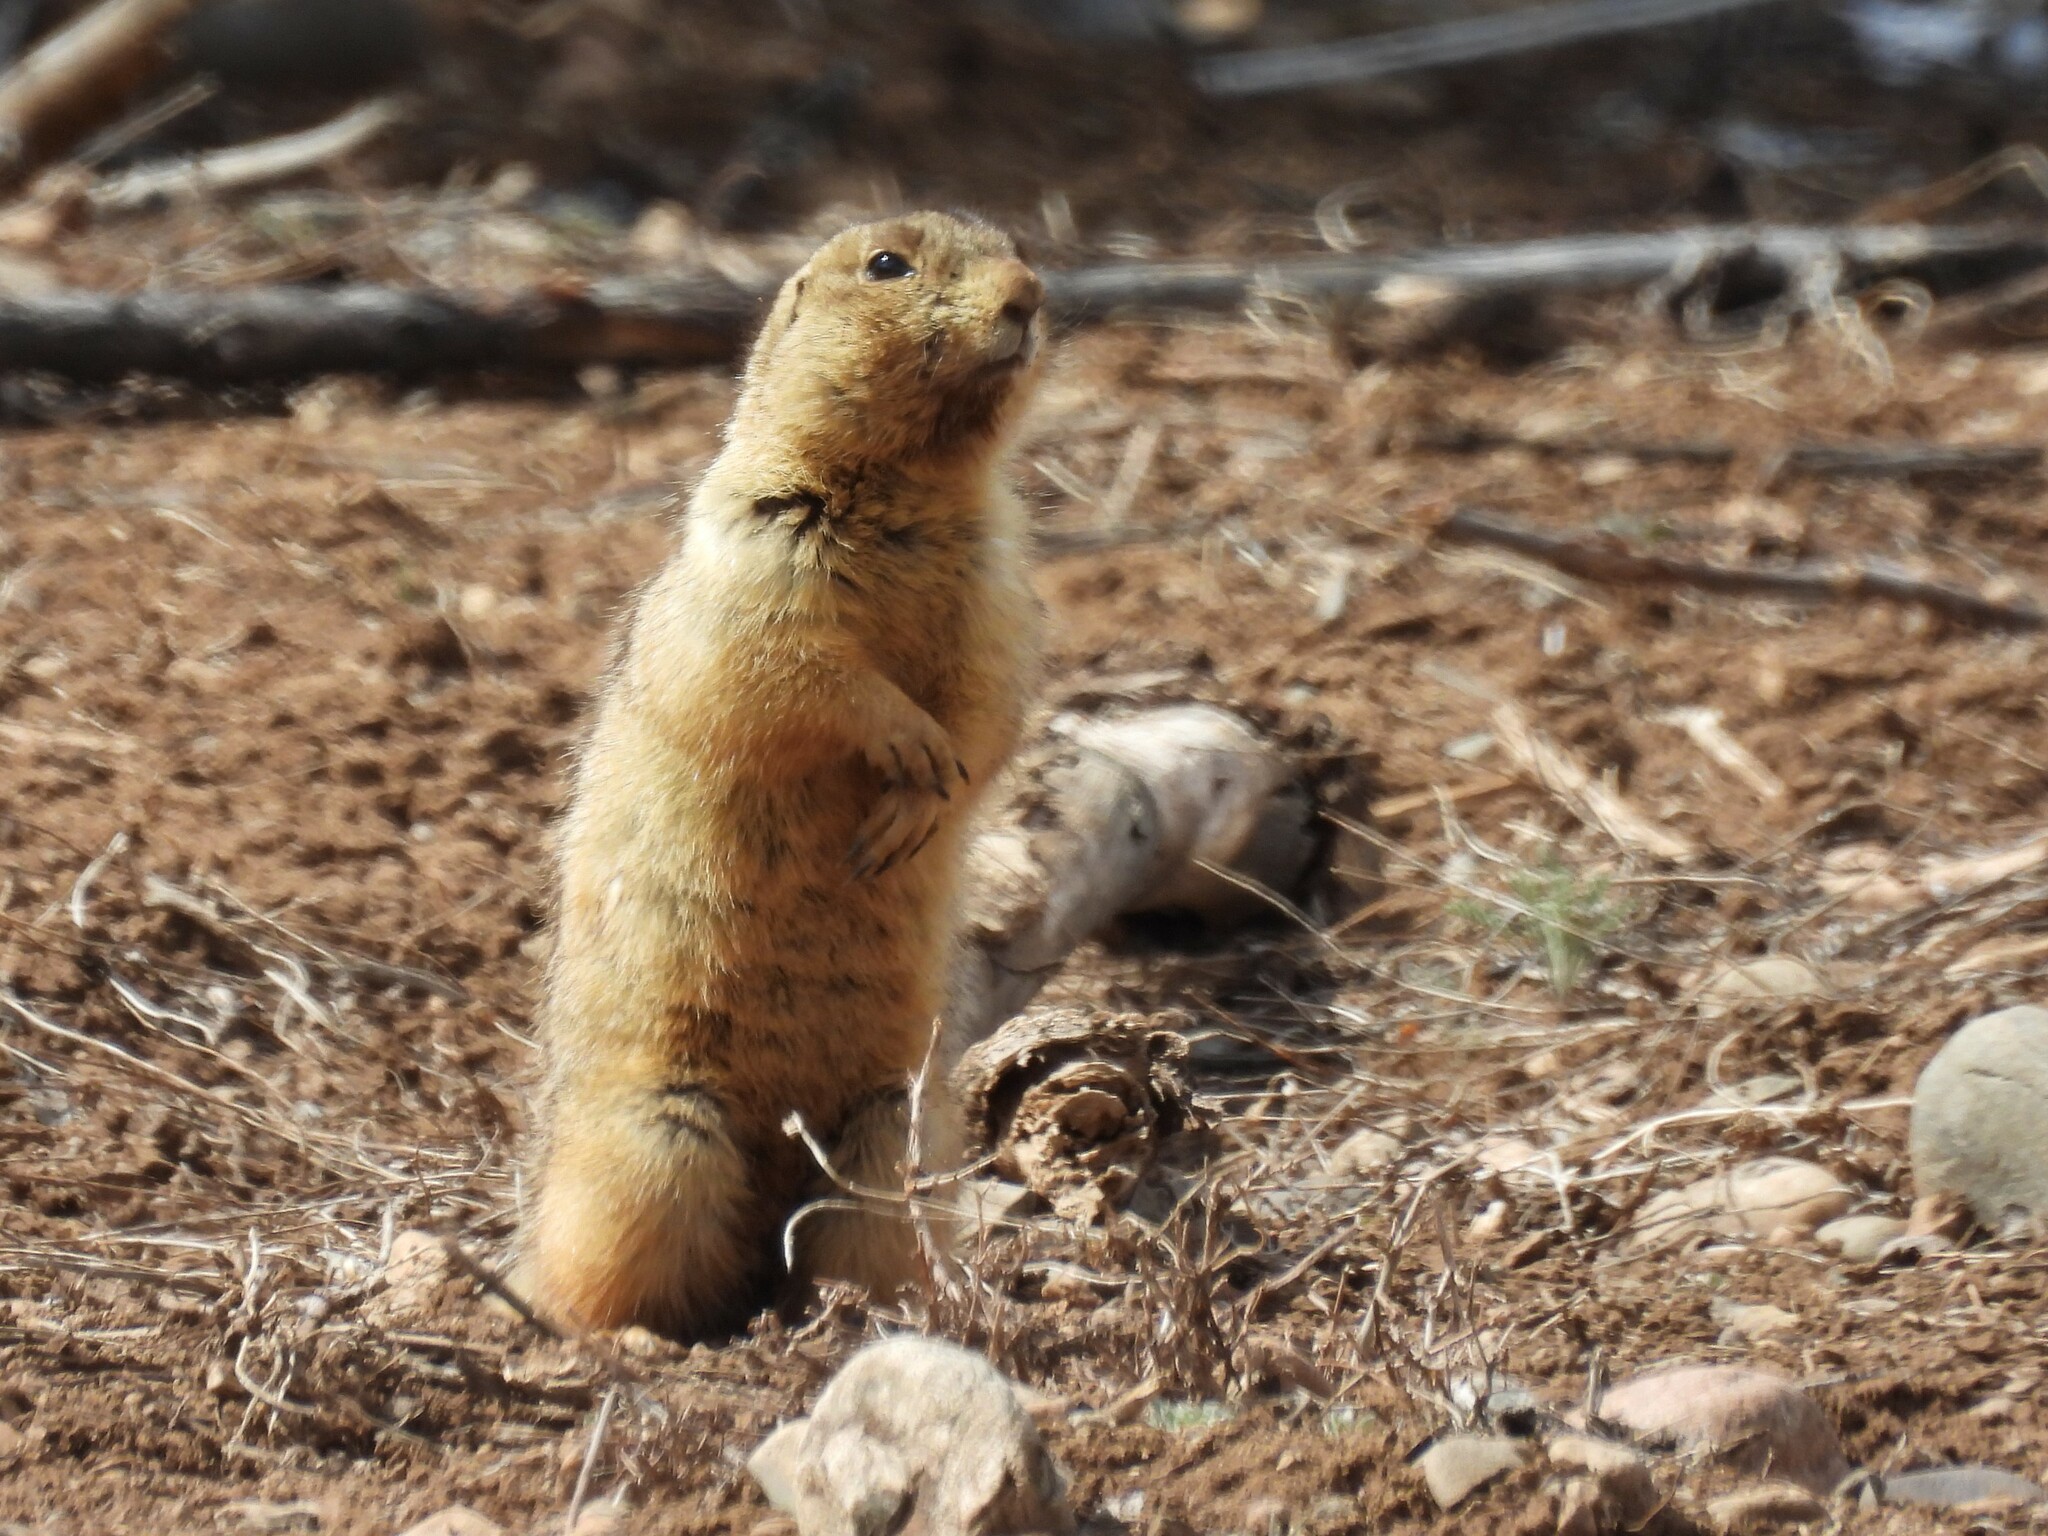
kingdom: Animalia
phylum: Chordata
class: Mammalia
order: Rodentia
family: Sciuridae
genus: Cynomys
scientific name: Cynomys gunnisoni
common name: Gunnison's prairie dog
